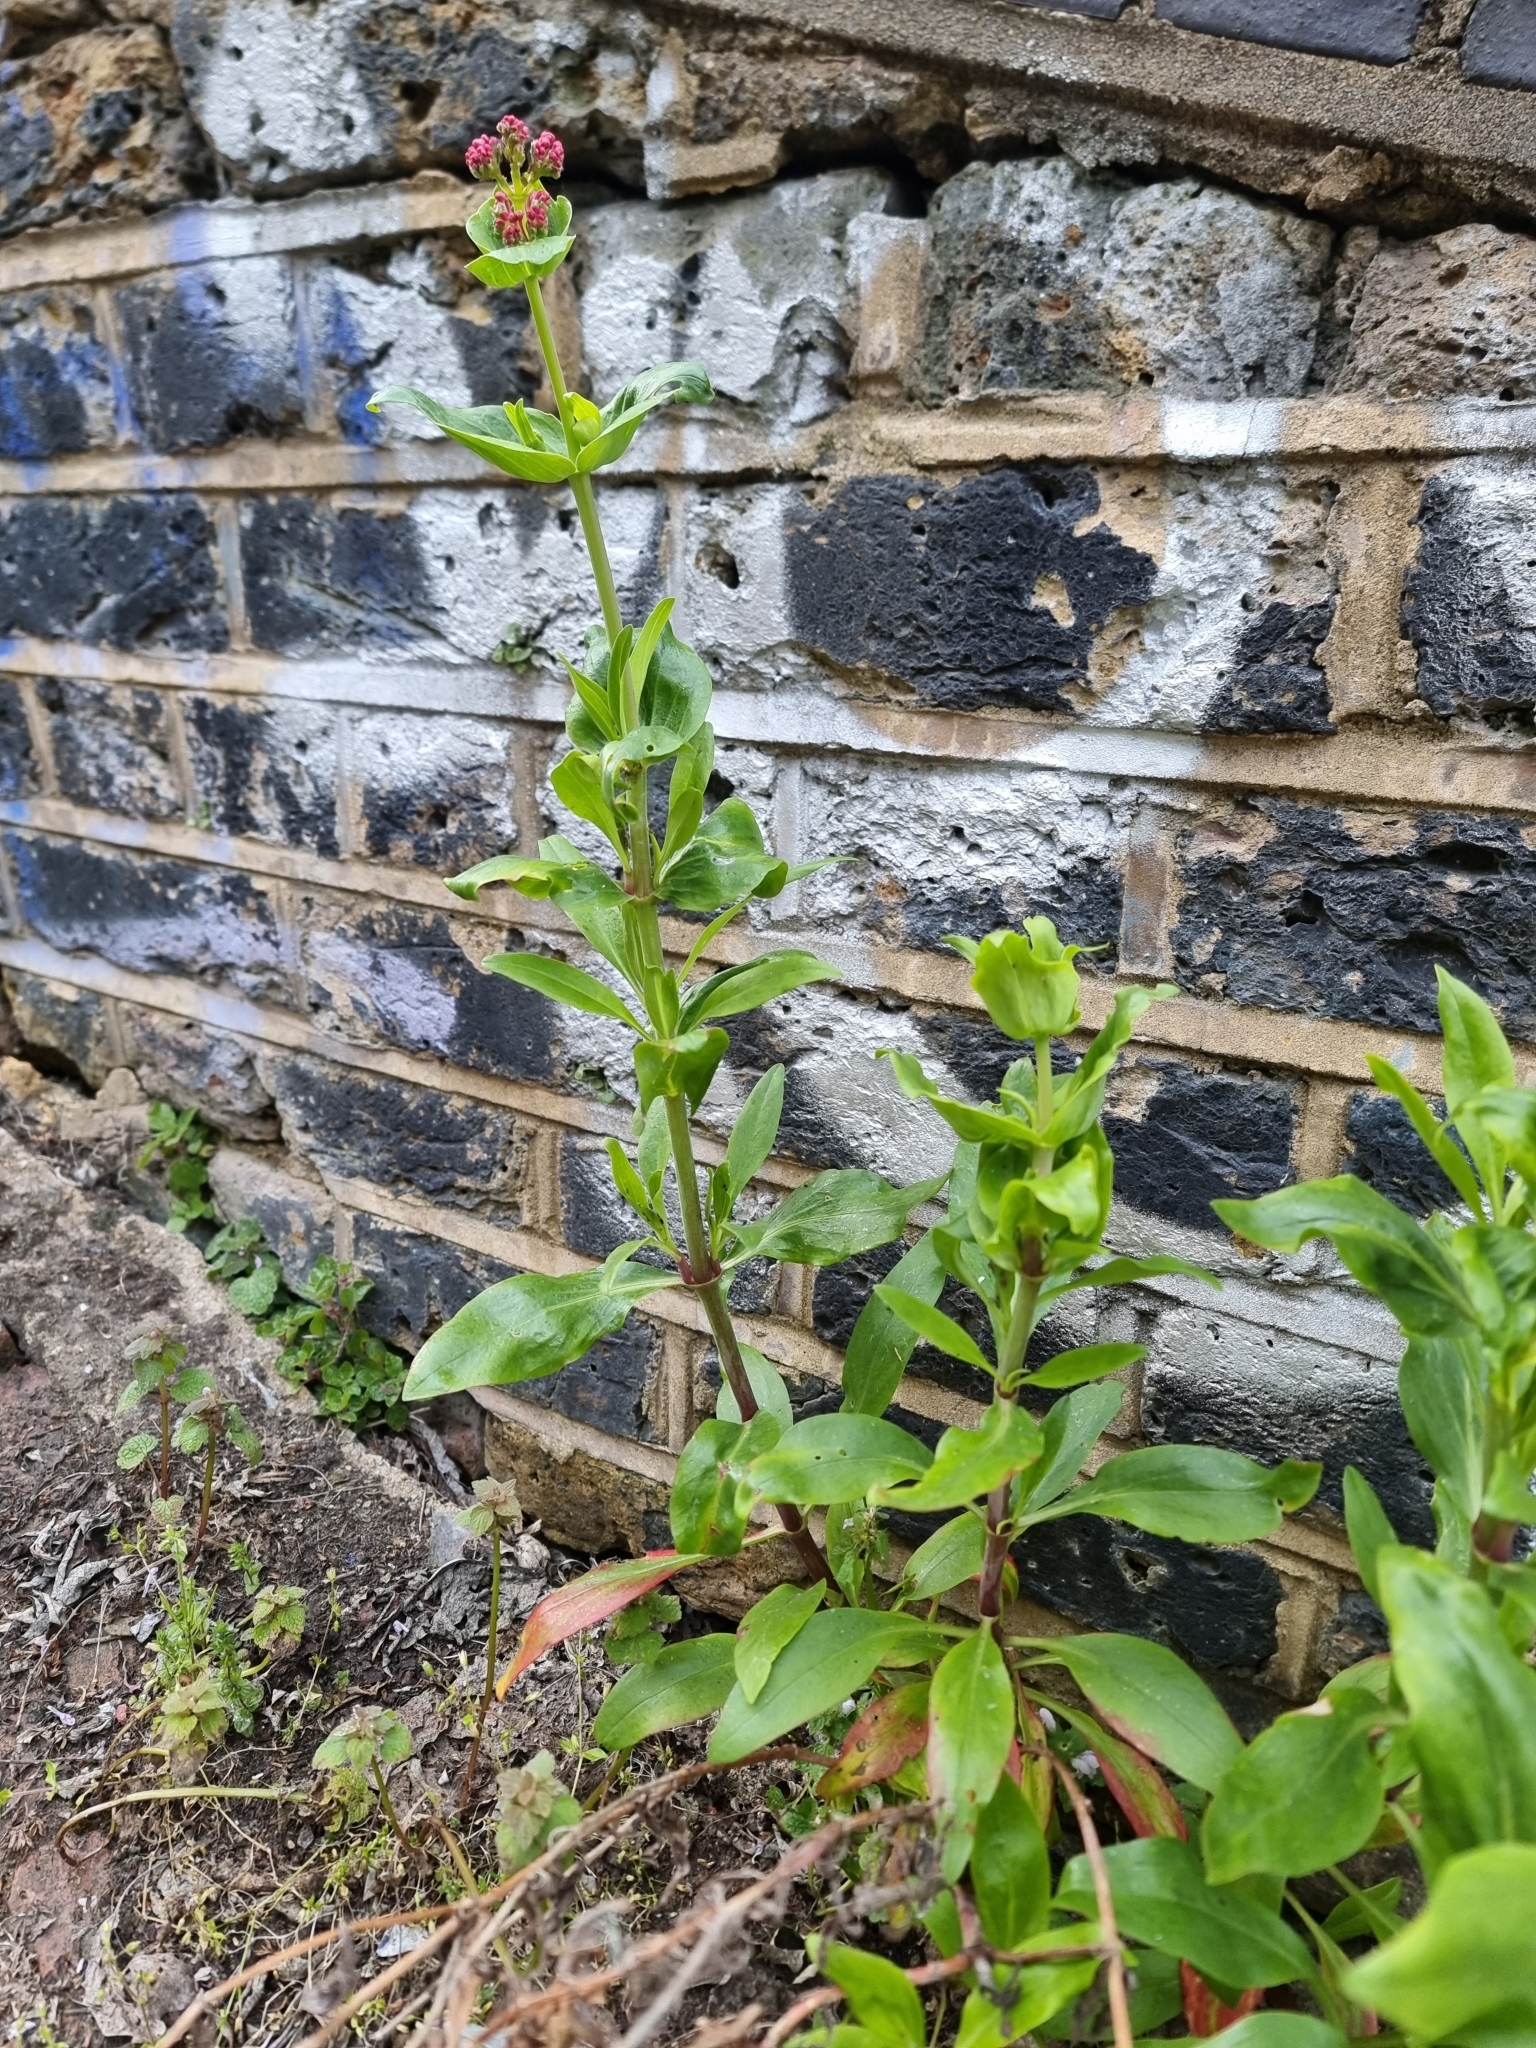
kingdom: Plantae
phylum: Tracheophyta
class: Magnoliopsida
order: Dipsacales
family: Caprifoliaceae
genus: Centranthus
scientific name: Centranthus ruber
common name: Red valerian
